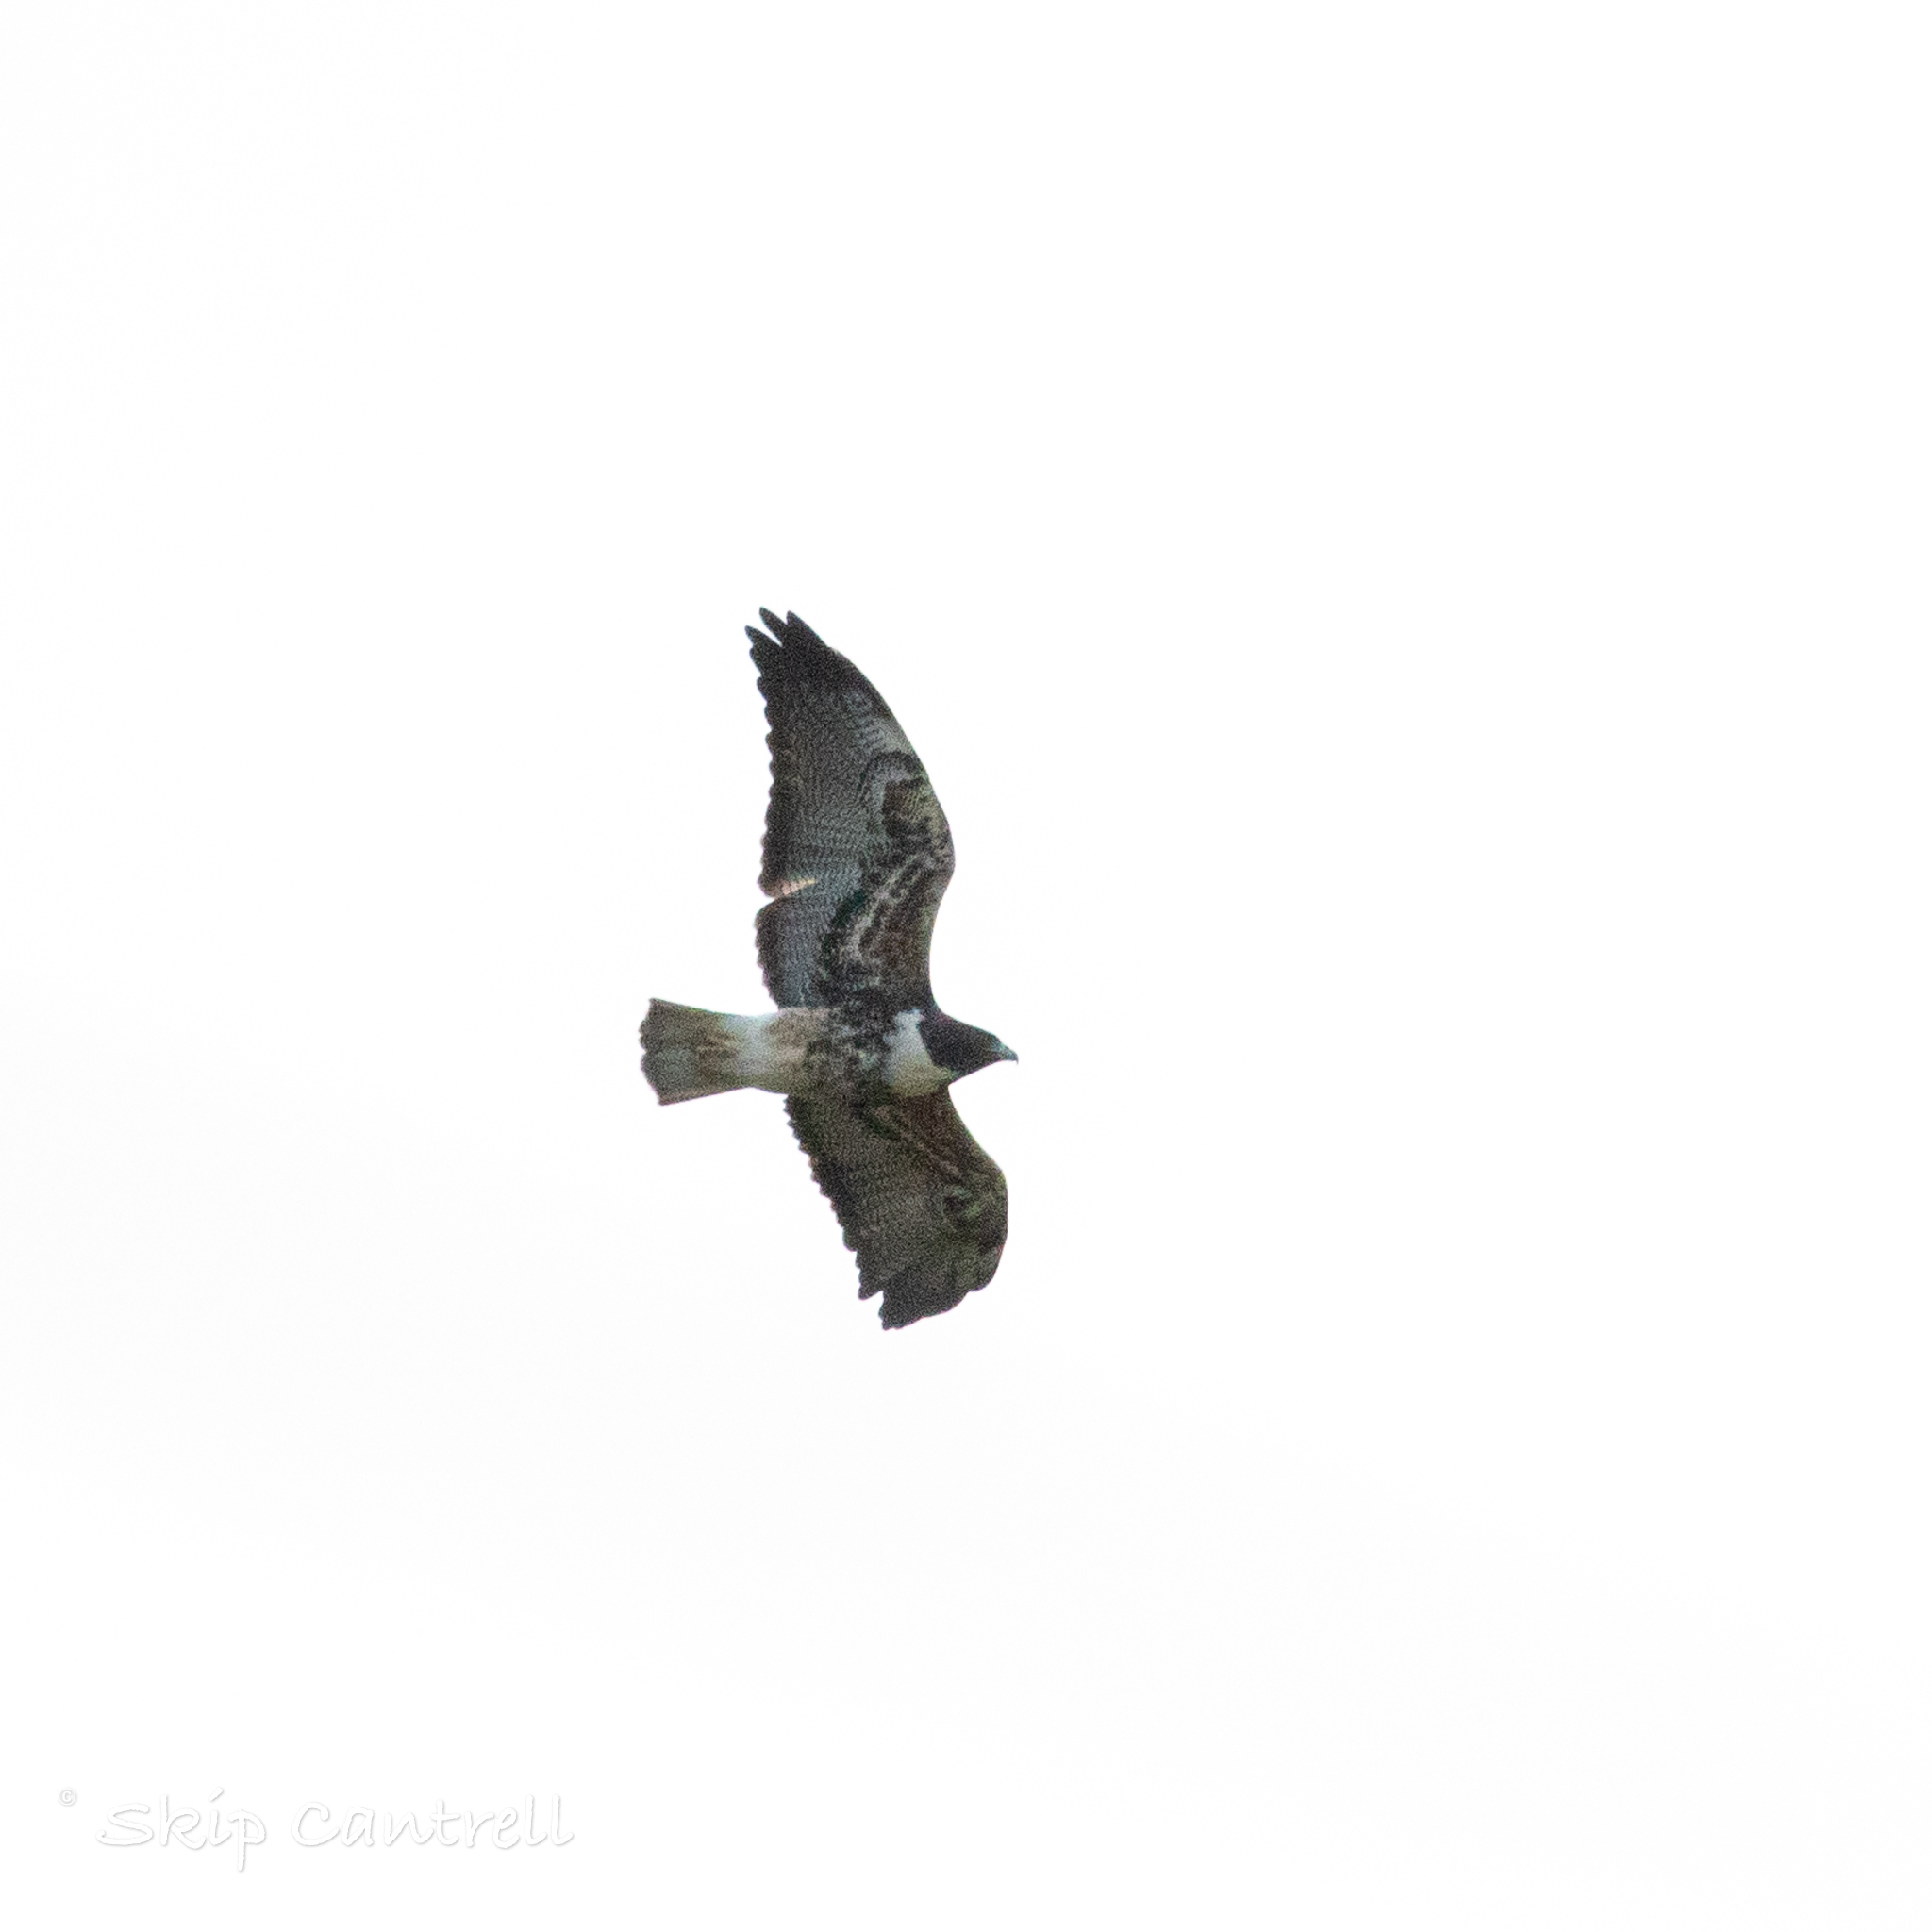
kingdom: Animalia
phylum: Chordata
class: Aves
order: Accipitriformes
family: Accipitridae
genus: Buteo
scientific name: Buteo albicaudatus
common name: White-tailed hawk
